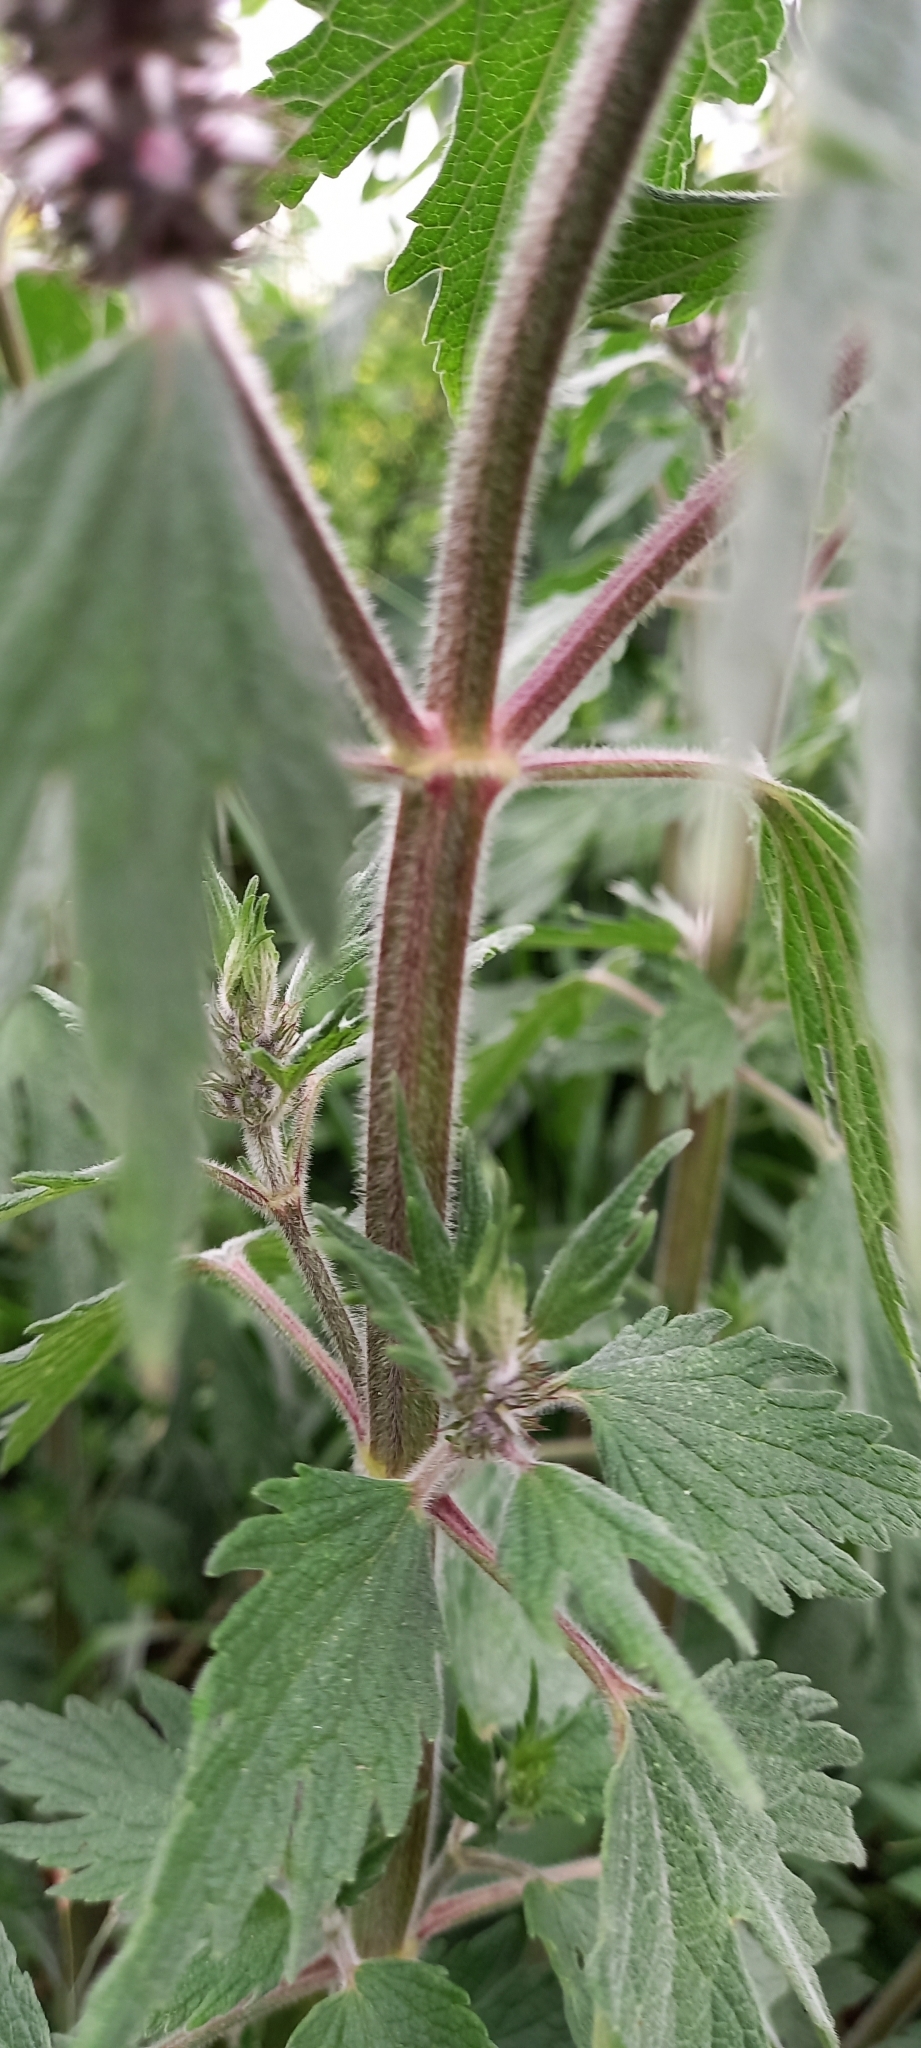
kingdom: Plantae
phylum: Tracheophyta
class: Magnoliopsida
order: Lamiales
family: Lamiaceae
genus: Leonurus
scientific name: Leonurus quinquelobatus
